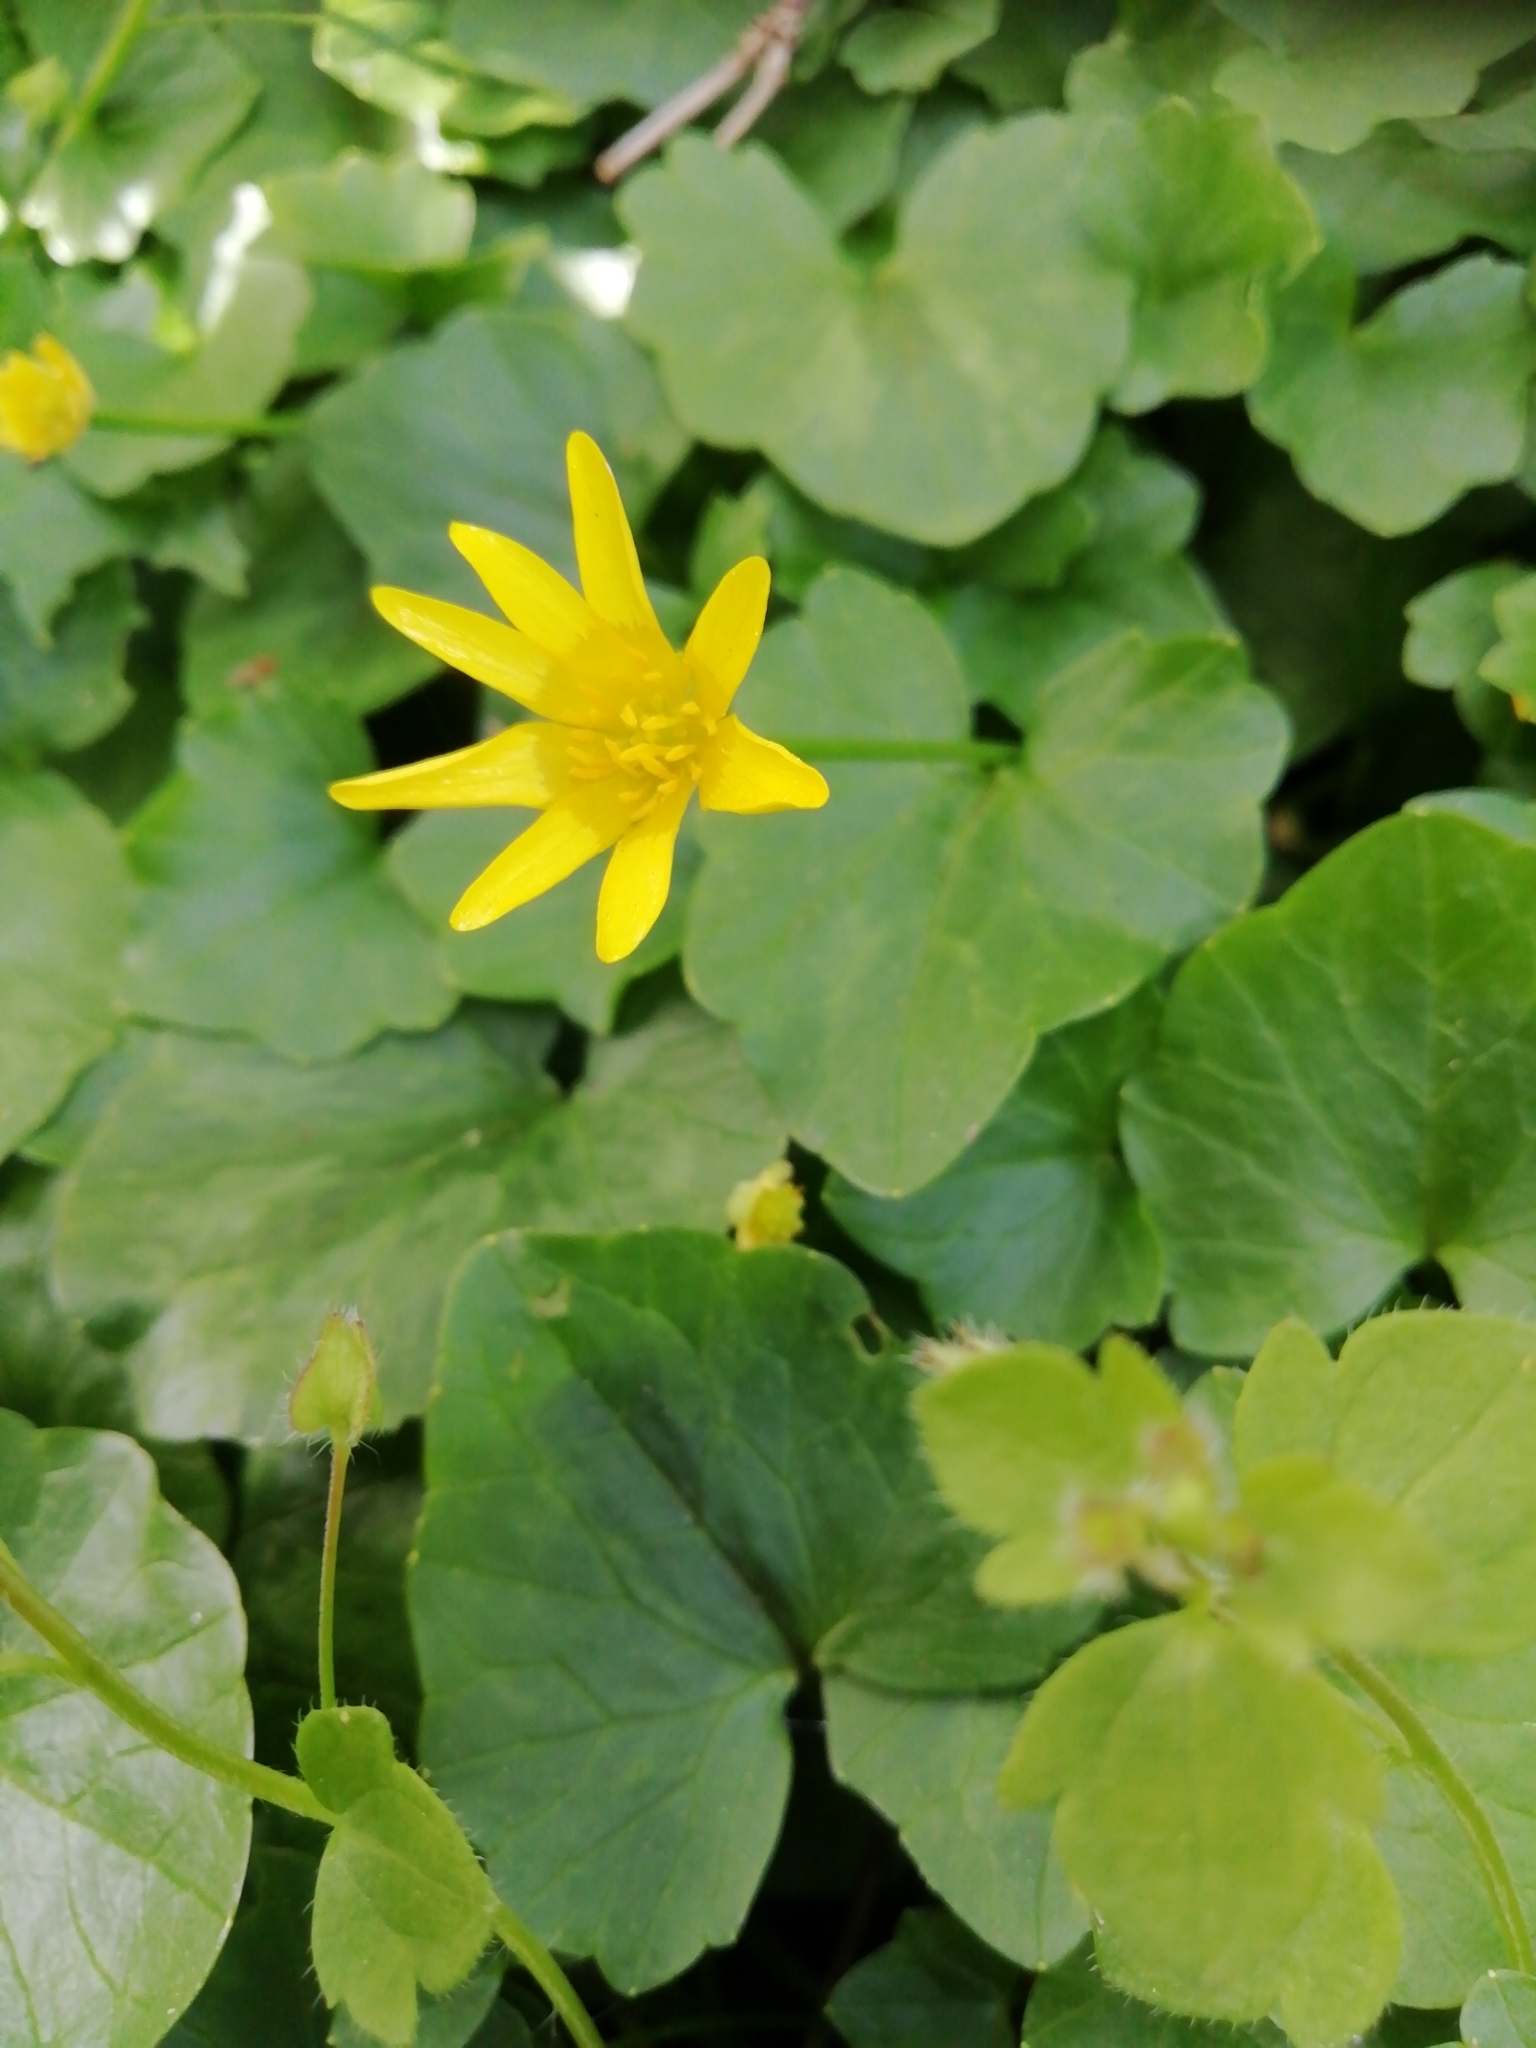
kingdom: Plantae
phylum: Tracheophyta
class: Magnoliopsida
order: Ranunculales
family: Ranunculaceae
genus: Ficaria
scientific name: Ficaria verna
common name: Lesser celandine
